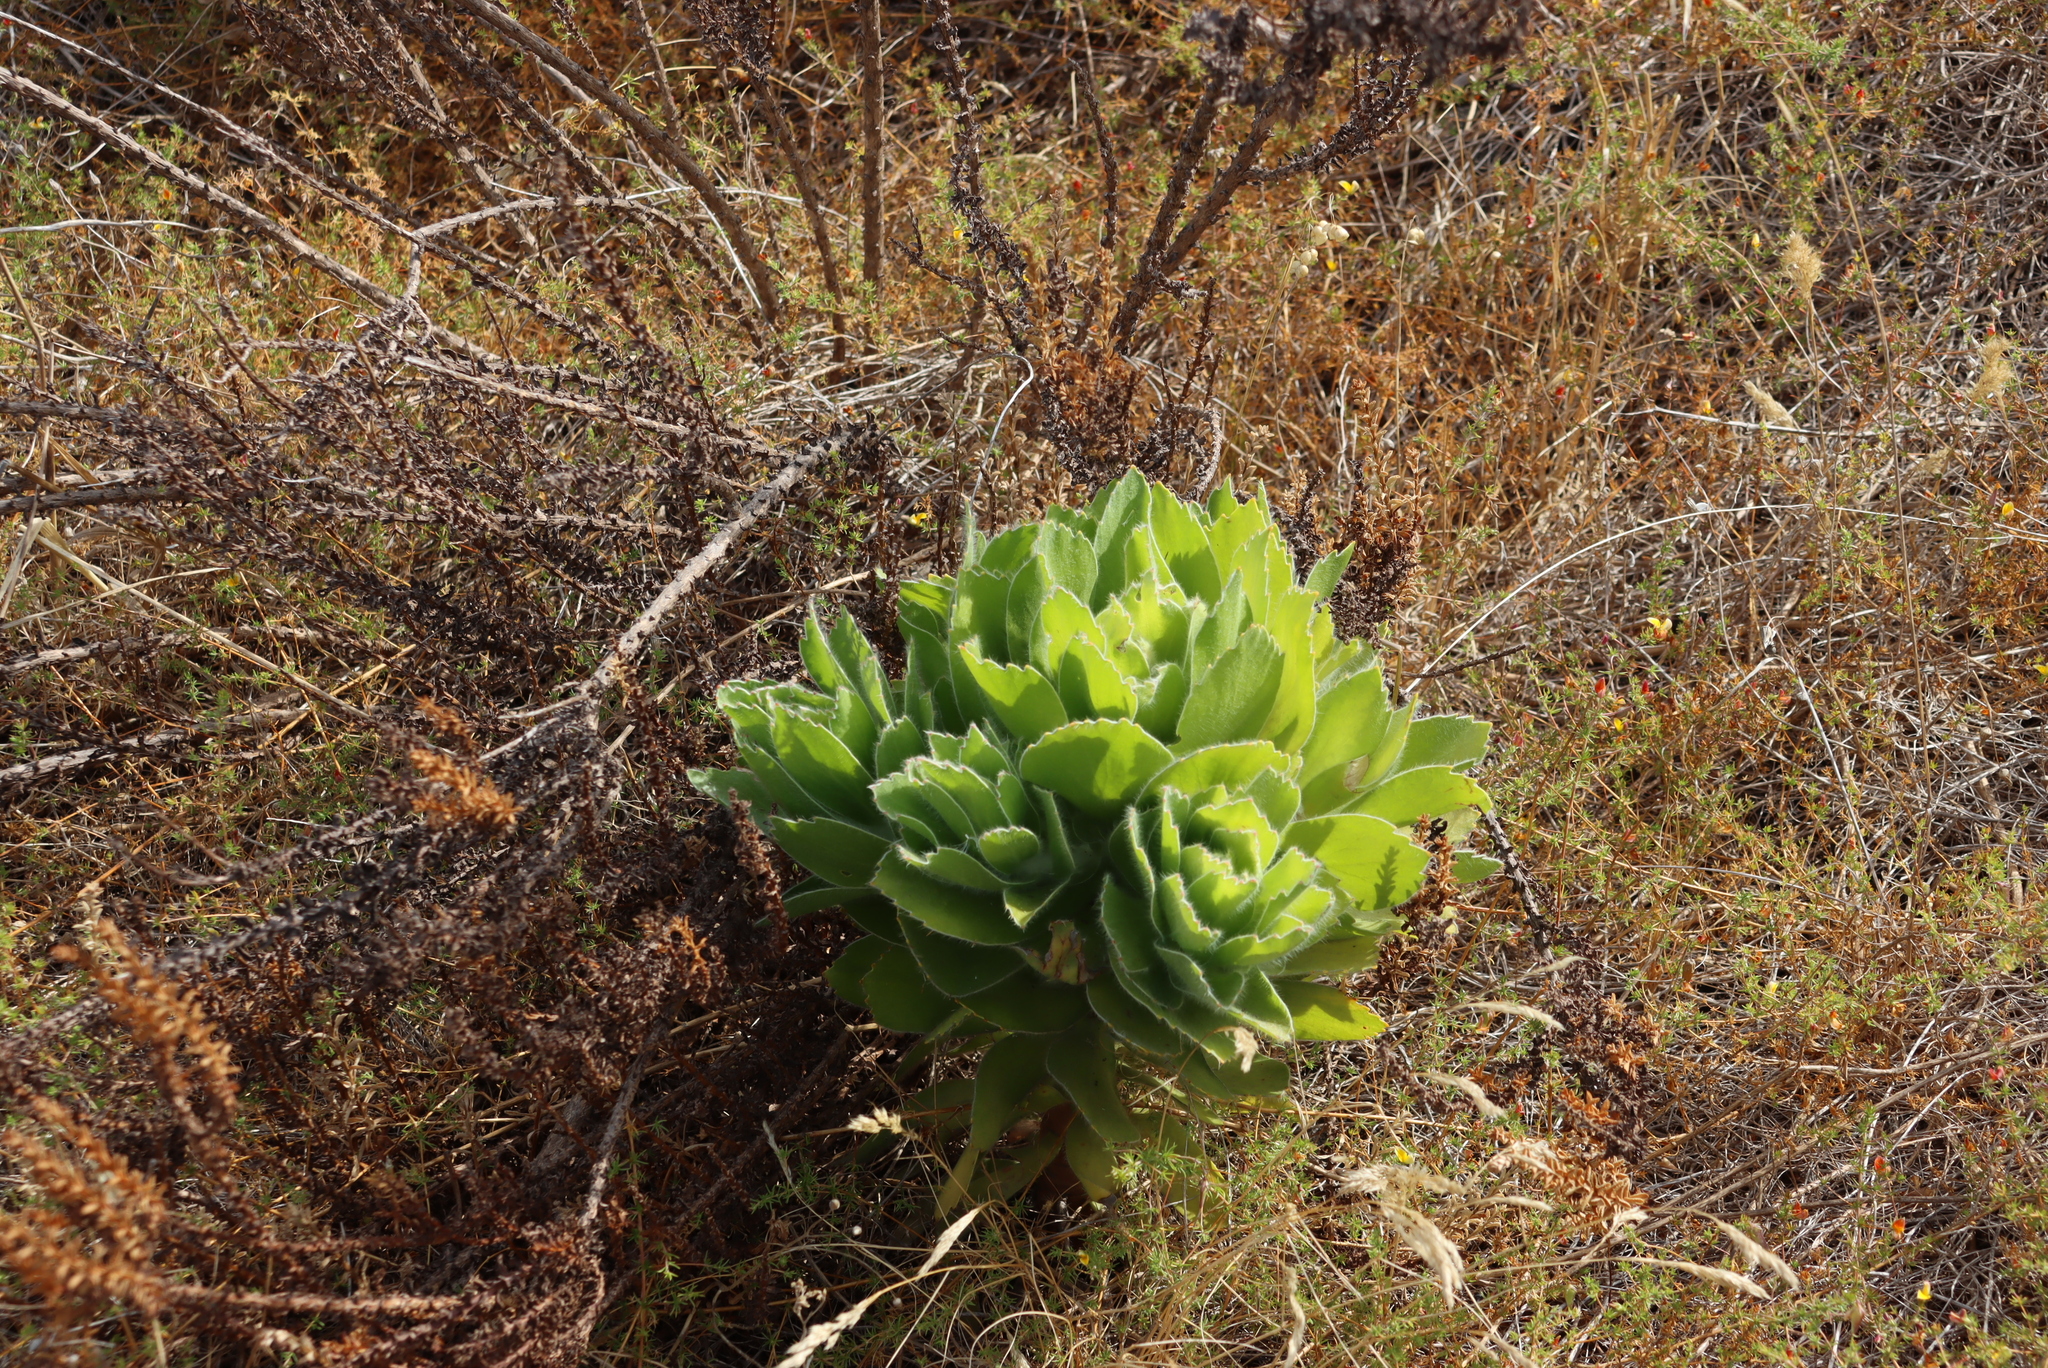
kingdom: Plantae
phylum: Tracheophyta
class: Magnoliopsida
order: Proteales
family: Proteaceae
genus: Leucospermum
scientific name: Leucospermum conocarpodendron
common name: Tree pincushion
